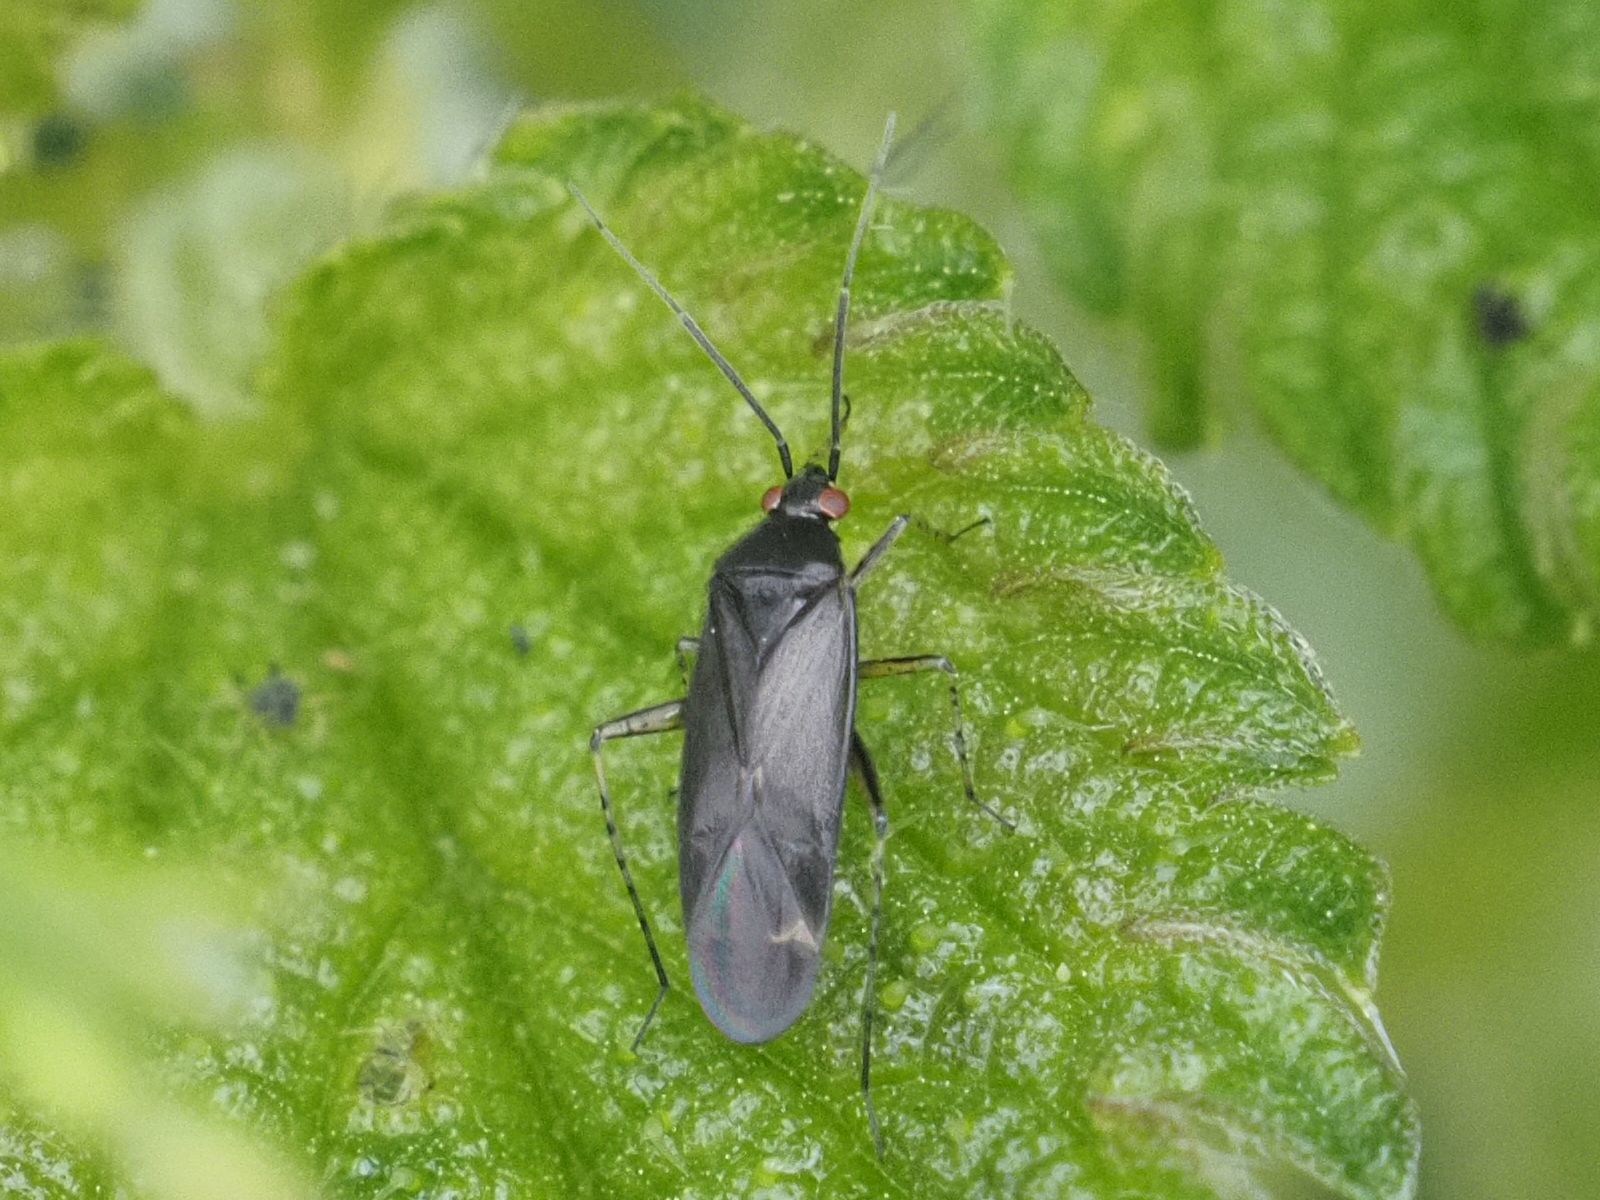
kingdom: Animalia
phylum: Arthropoda
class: Insecta
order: Hemiptera
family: Miridae
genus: Plagiognathus
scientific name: Plagiognathus arbustorum
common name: Plant bug
